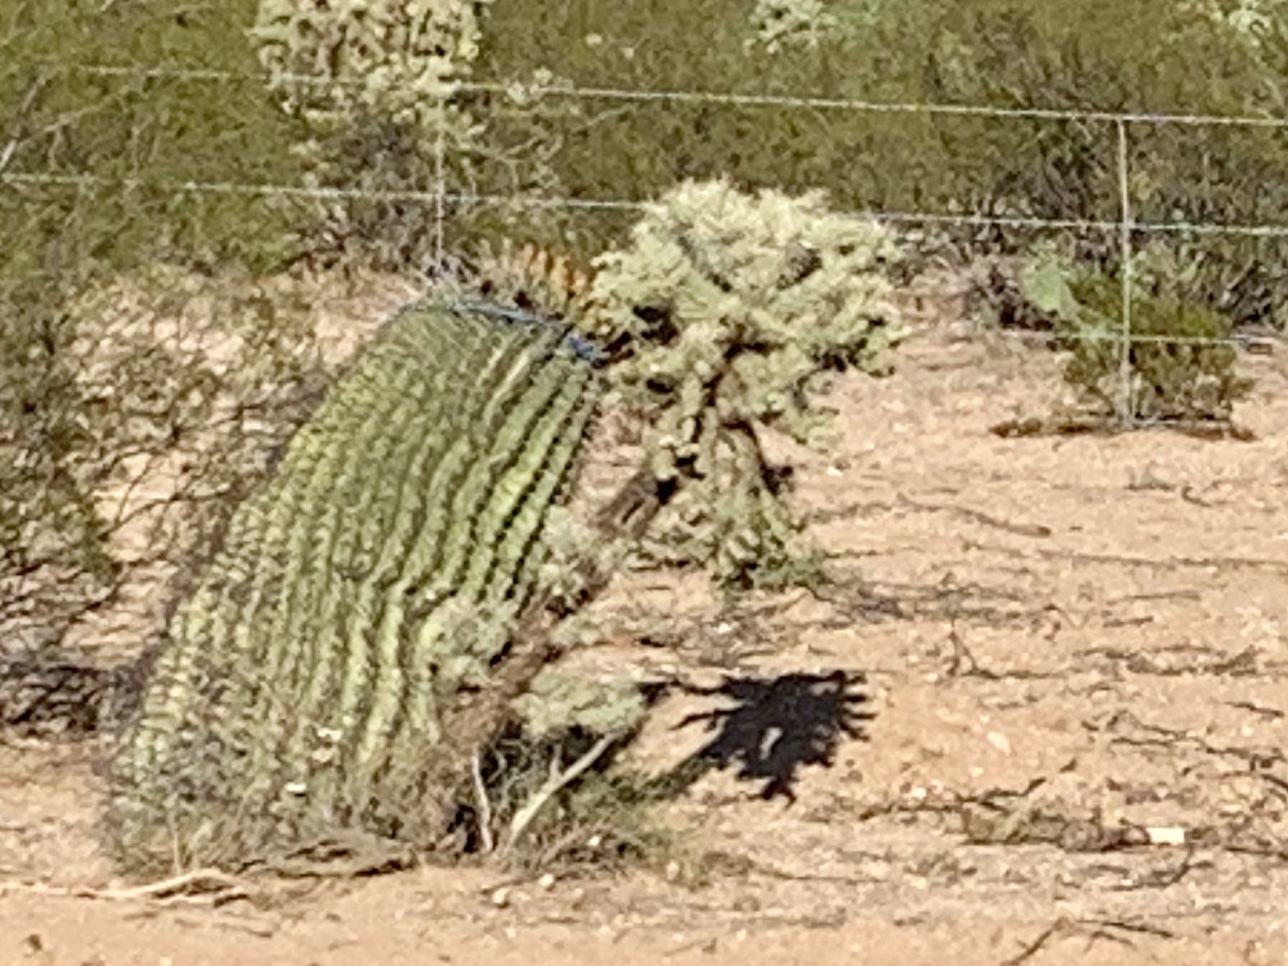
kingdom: Plantae
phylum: Tracheophyta
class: Magnoliopsida
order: Caryophyllales
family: Cactaceae
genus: Cylindropuntia
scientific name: Cylindropuntia fulgida
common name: Jumping cholla
